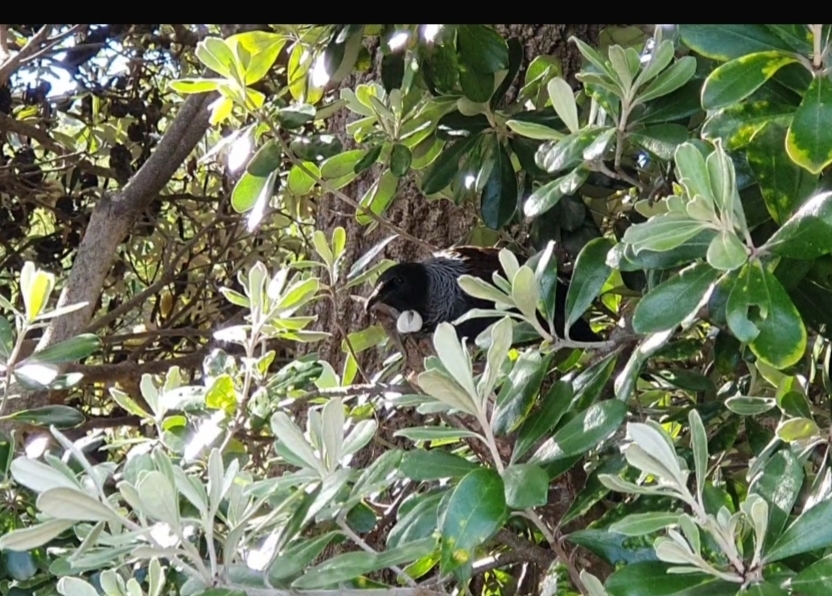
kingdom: Animalia
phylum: Chordata
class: Aves
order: Passeriformes
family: Meliphagidae
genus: Prosthemadera
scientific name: Prosthemadera novaeseelandiae
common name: Tui
